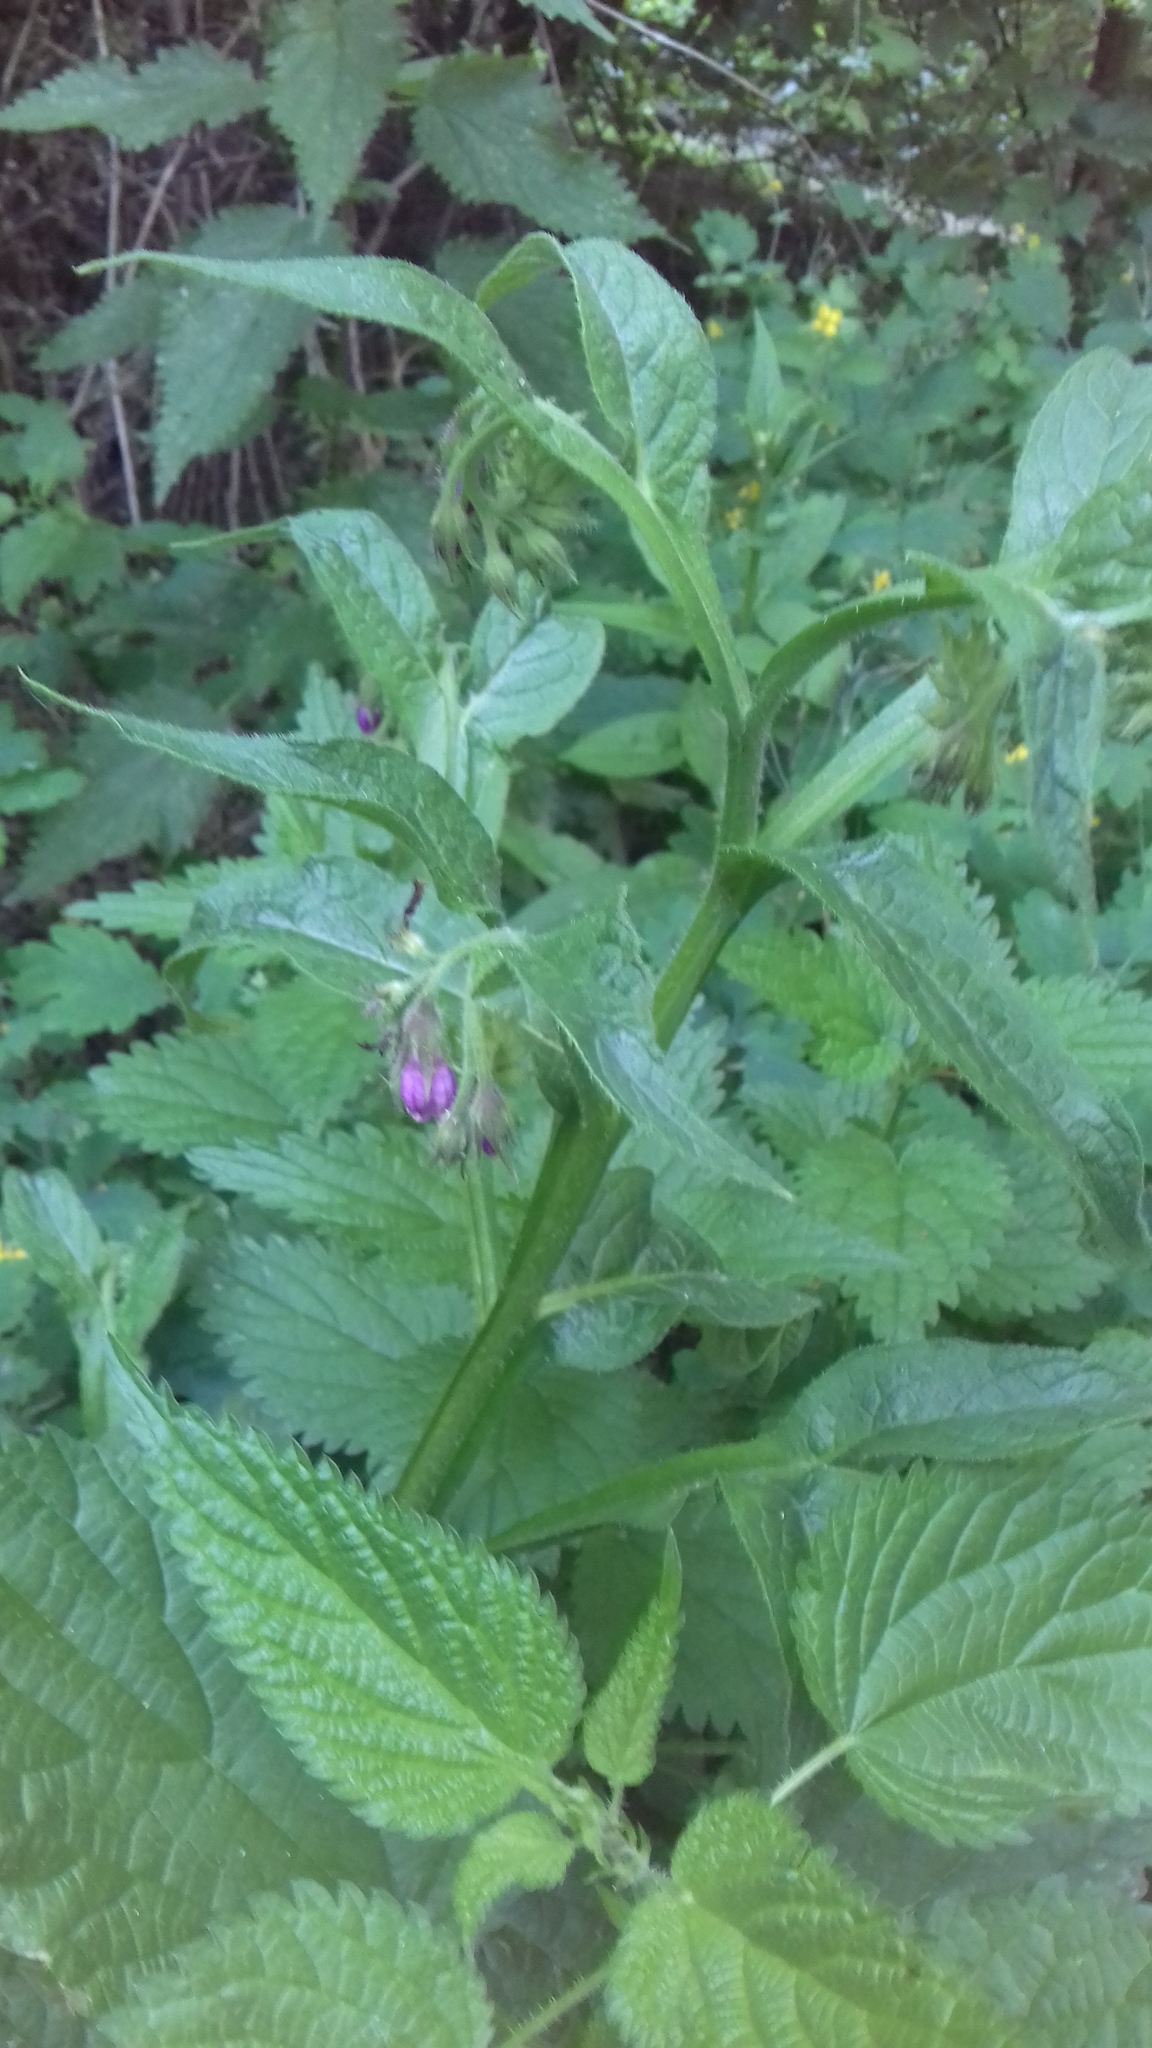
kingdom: Plantae
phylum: Tracheophyta
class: Magnoliopsida
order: Boraginales
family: Boraginaceae
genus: Symphytum
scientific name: Symphytum officinale
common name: Common comfrey
